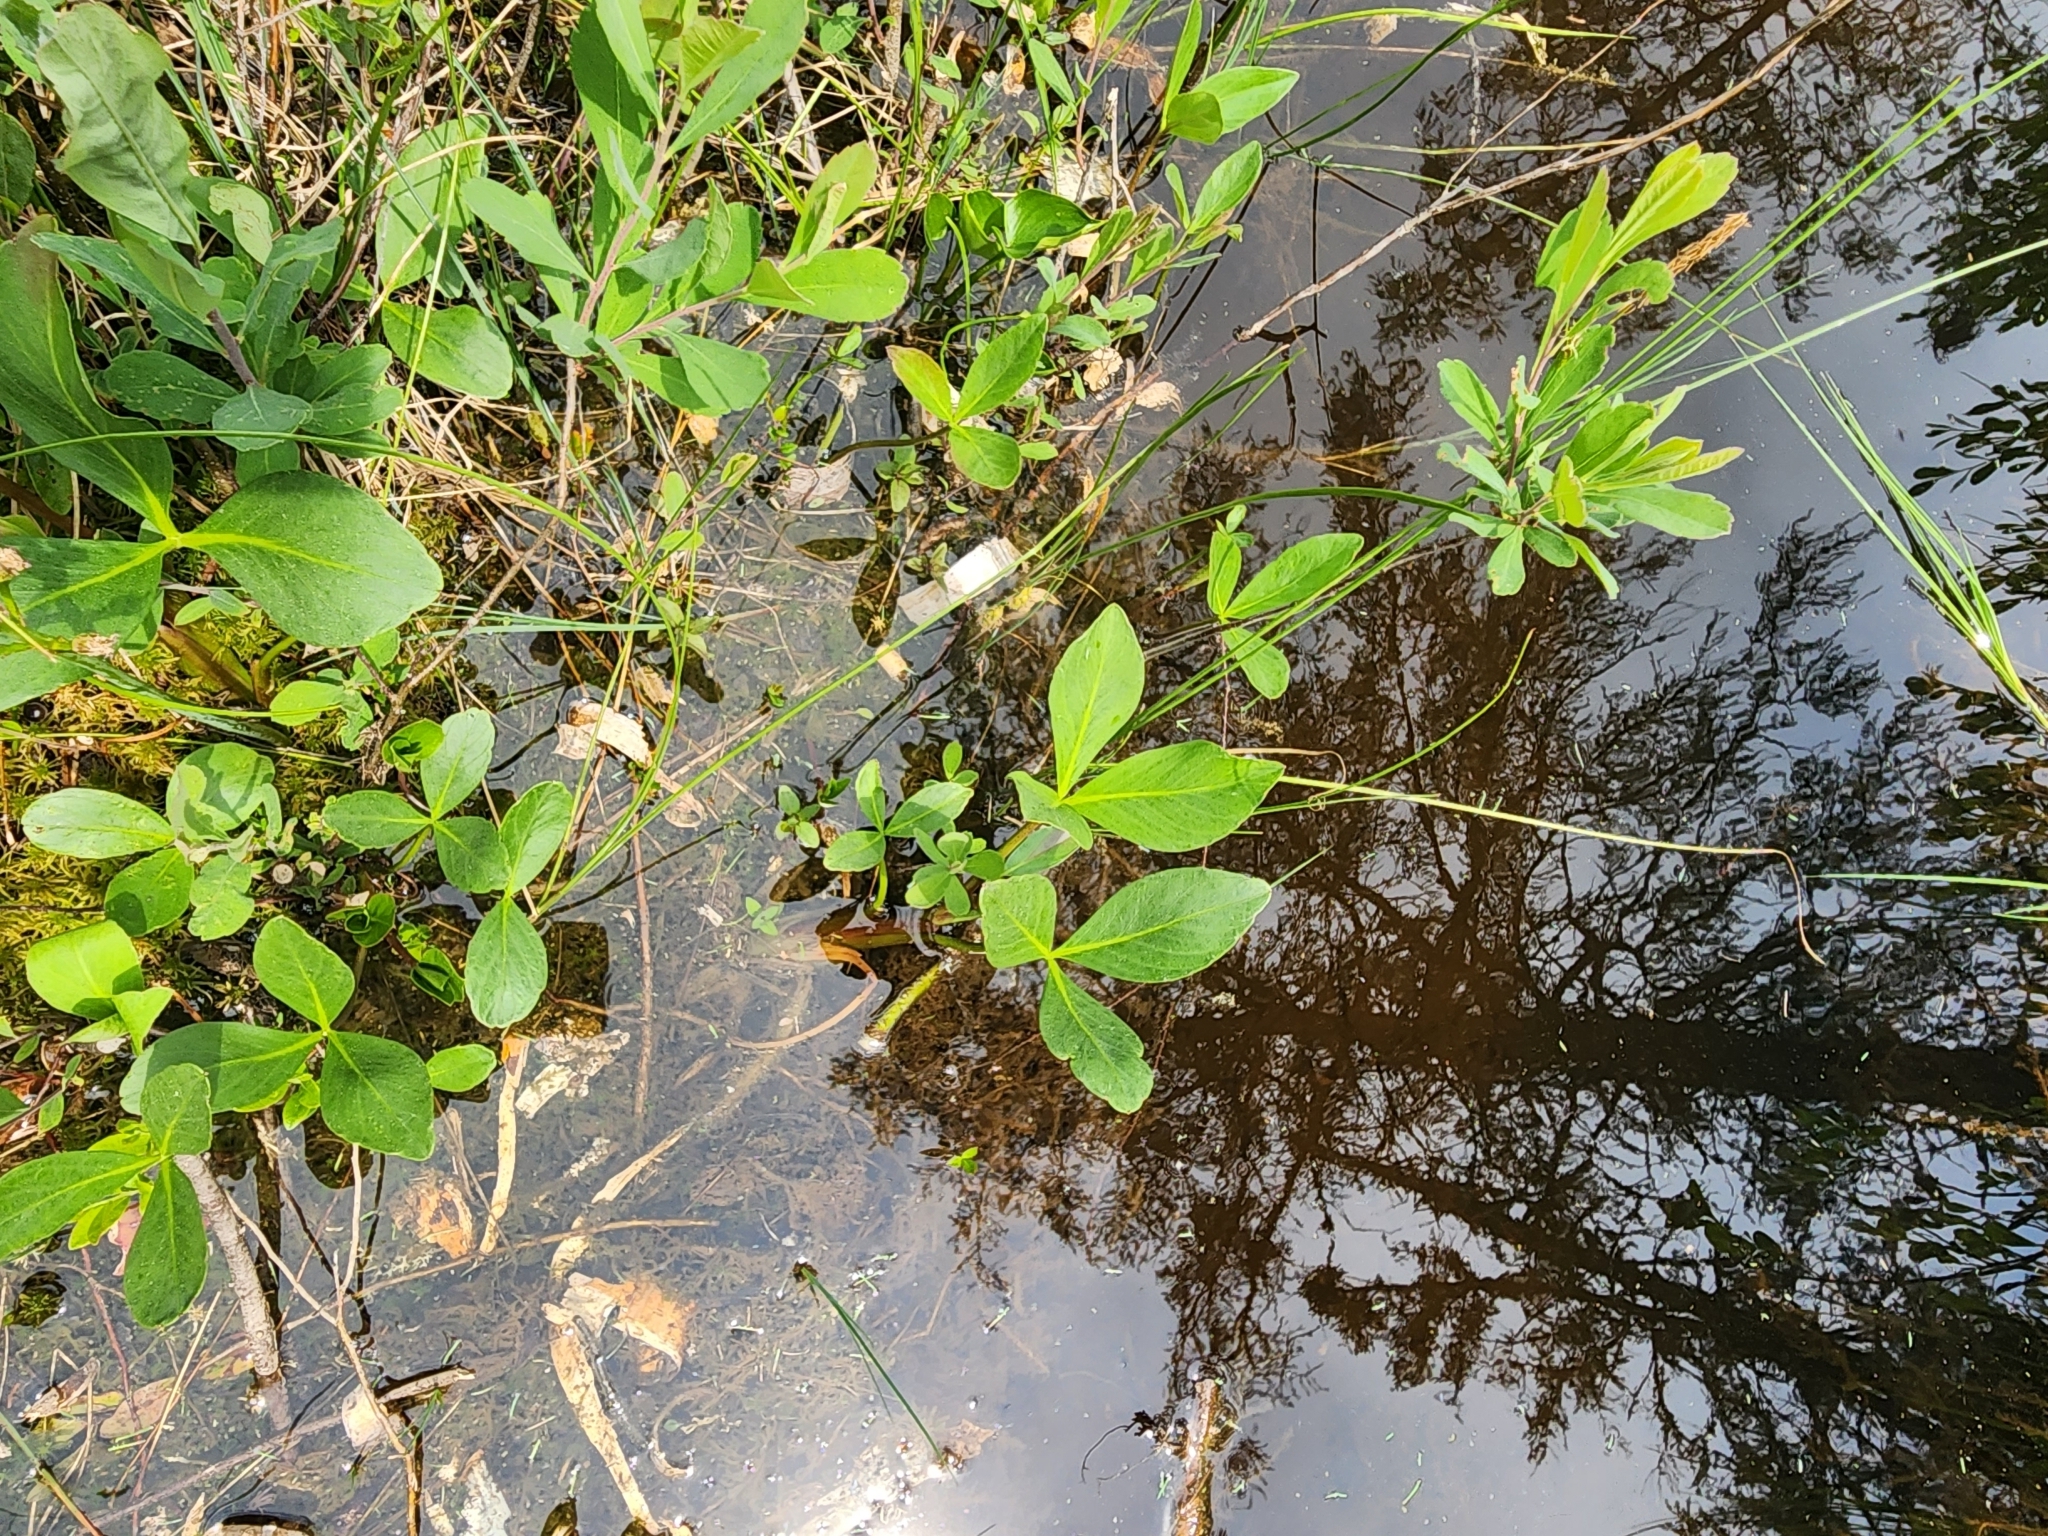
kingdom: Plantae
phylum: Tracheophyta
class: Magnoliopsida
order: Asterales
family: Menyanthaceae
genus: Menyanthes
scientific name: Menyanthes trifoliata
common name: Bogbean
